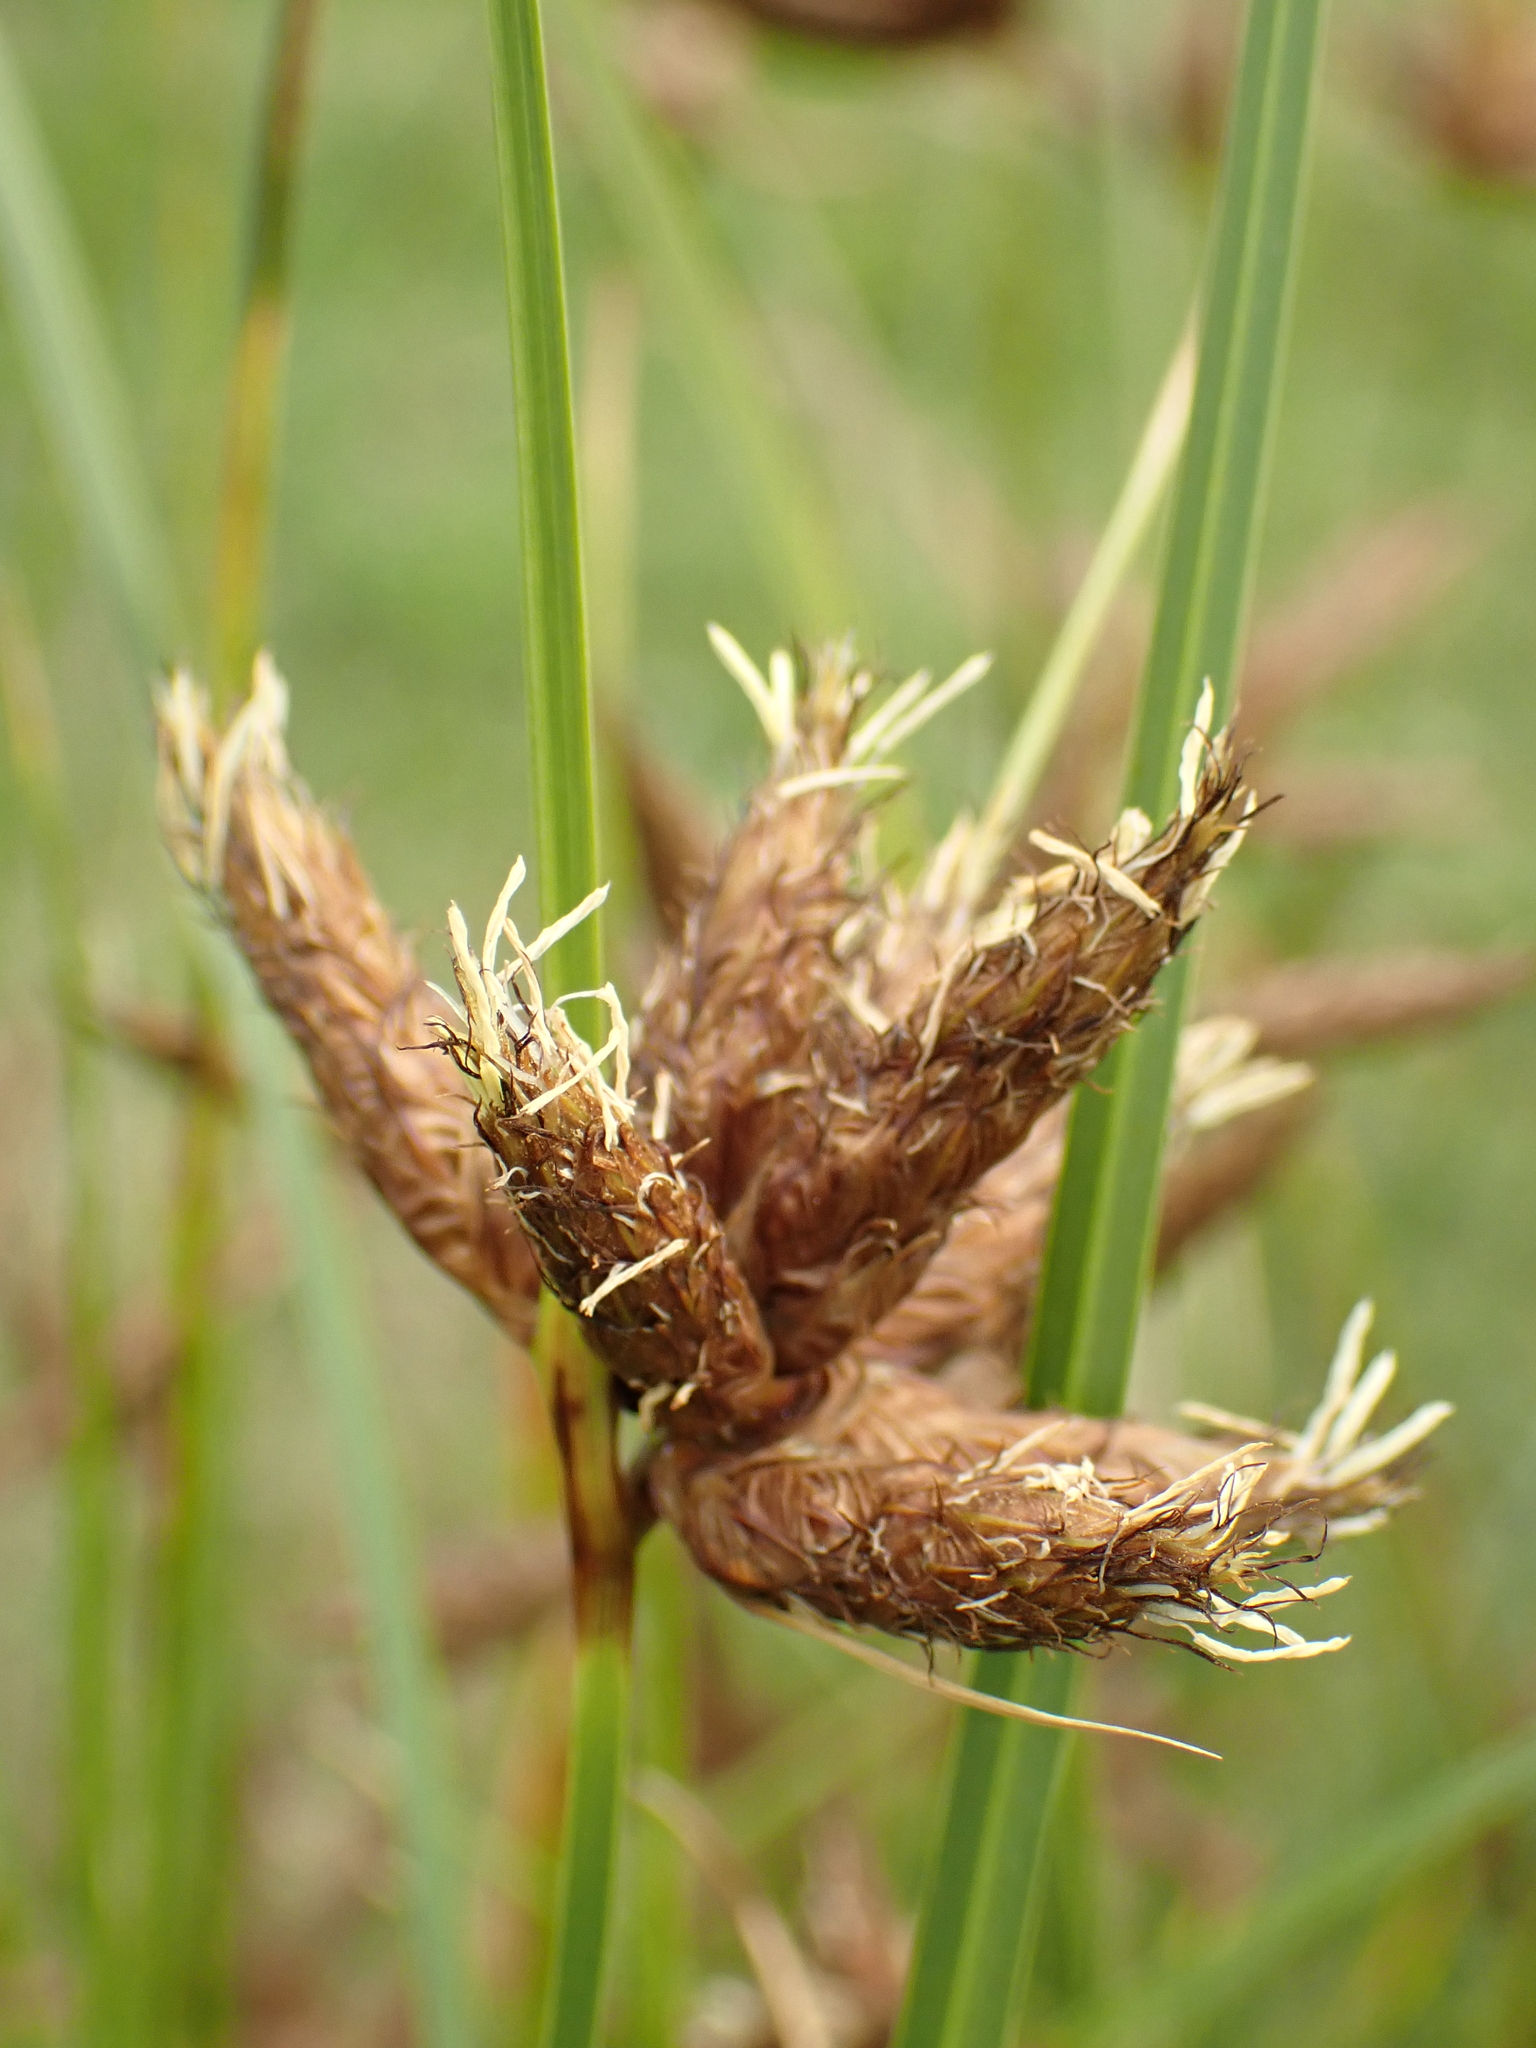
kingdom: Plantae
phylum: Tracheophyta
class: Liliopsida
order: Poales
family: Cyperaceae
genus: Bolboschoenus
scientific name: Bolboschoenus maritimus
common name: Sea club-rush
